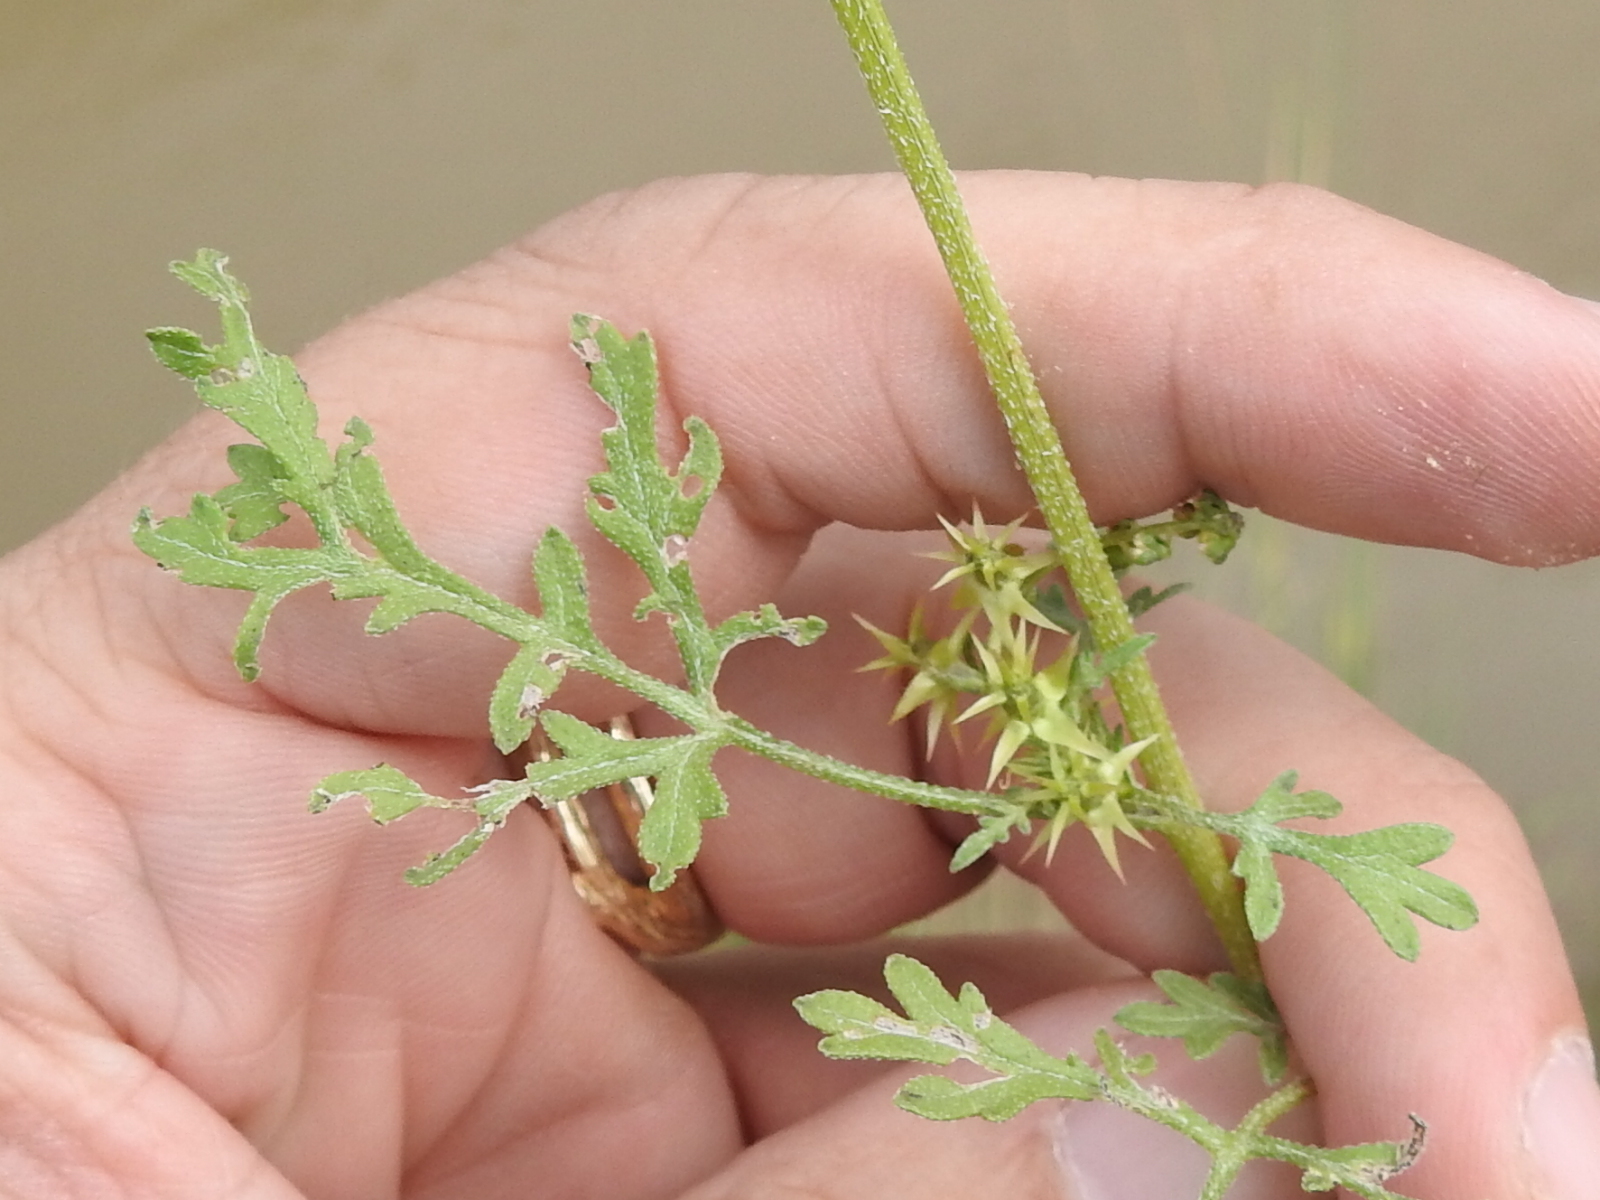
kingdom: Plantae
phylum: Tracheophyta
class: Magnoliopsida
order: Asterales
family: Asteraceae
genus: Ambrosia
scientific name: Ambrosia acanthicarpa
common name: Hooker's bur ragweed
